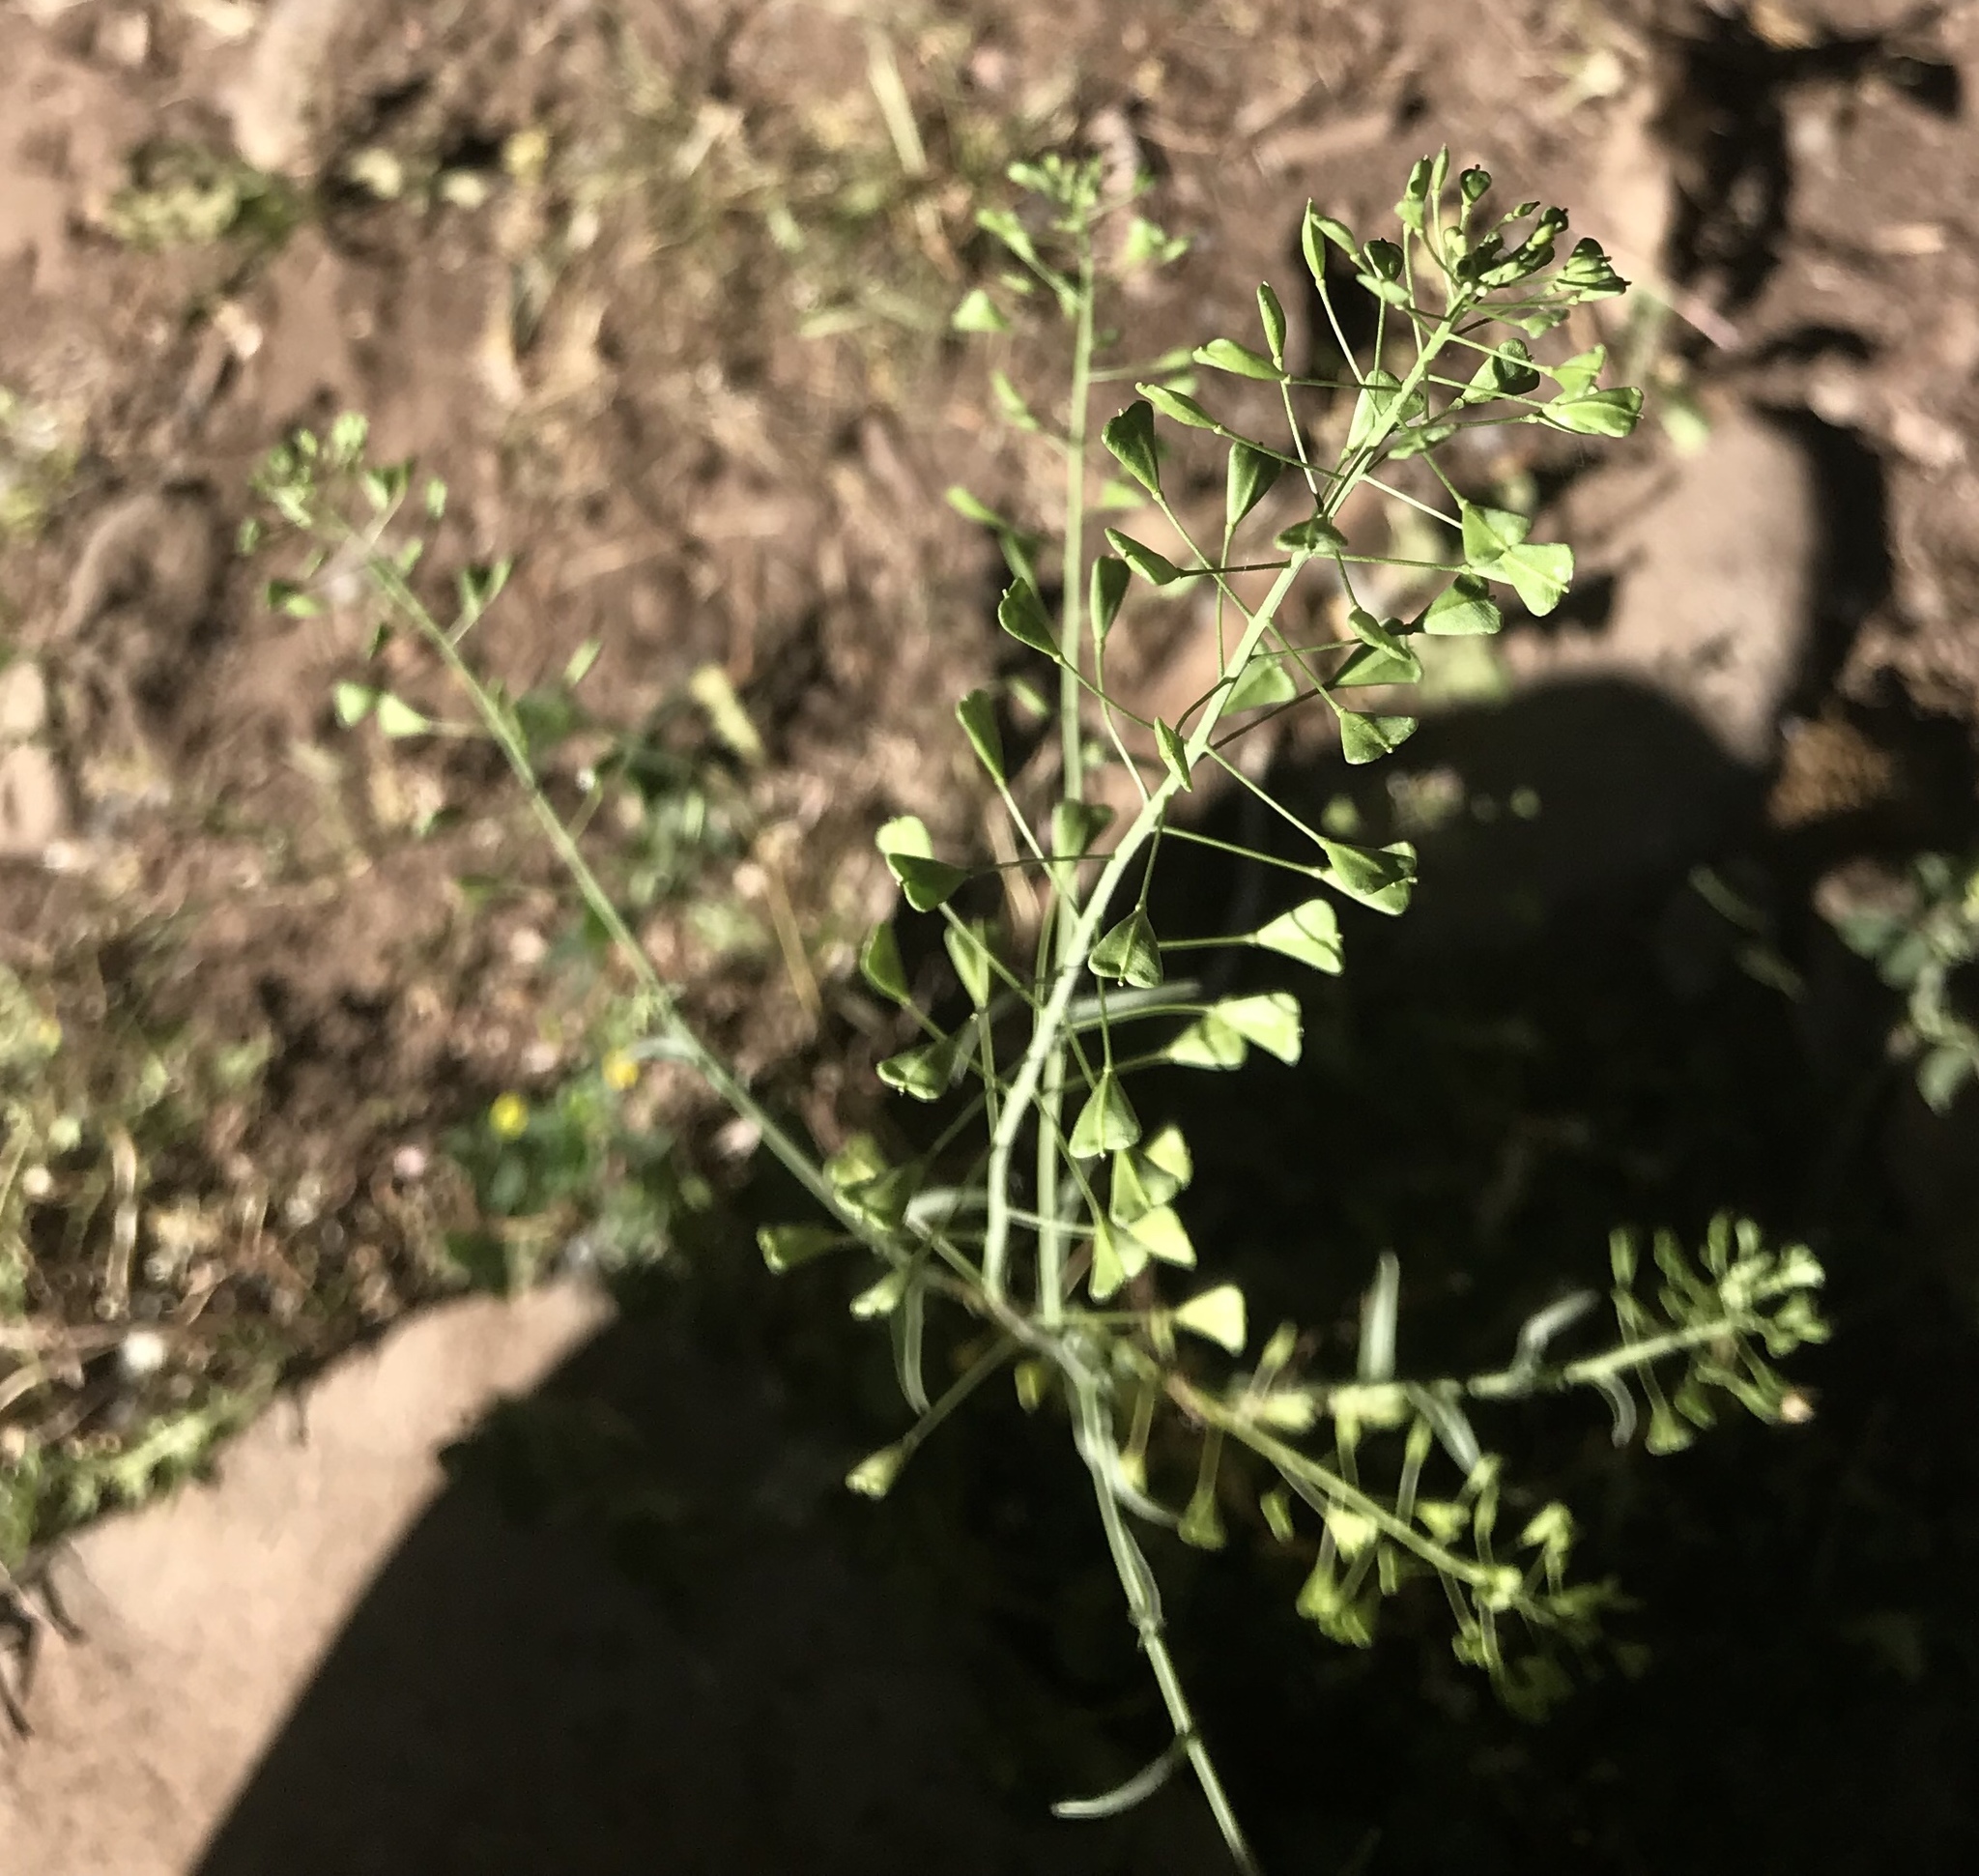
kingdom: Plantae
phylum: Tracheophyta
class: Magnoliopsida
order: Brassicales
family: Brassicaceae
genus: Capsella
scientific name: Capsella bursa-pastoris
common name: Shepherd's purse
